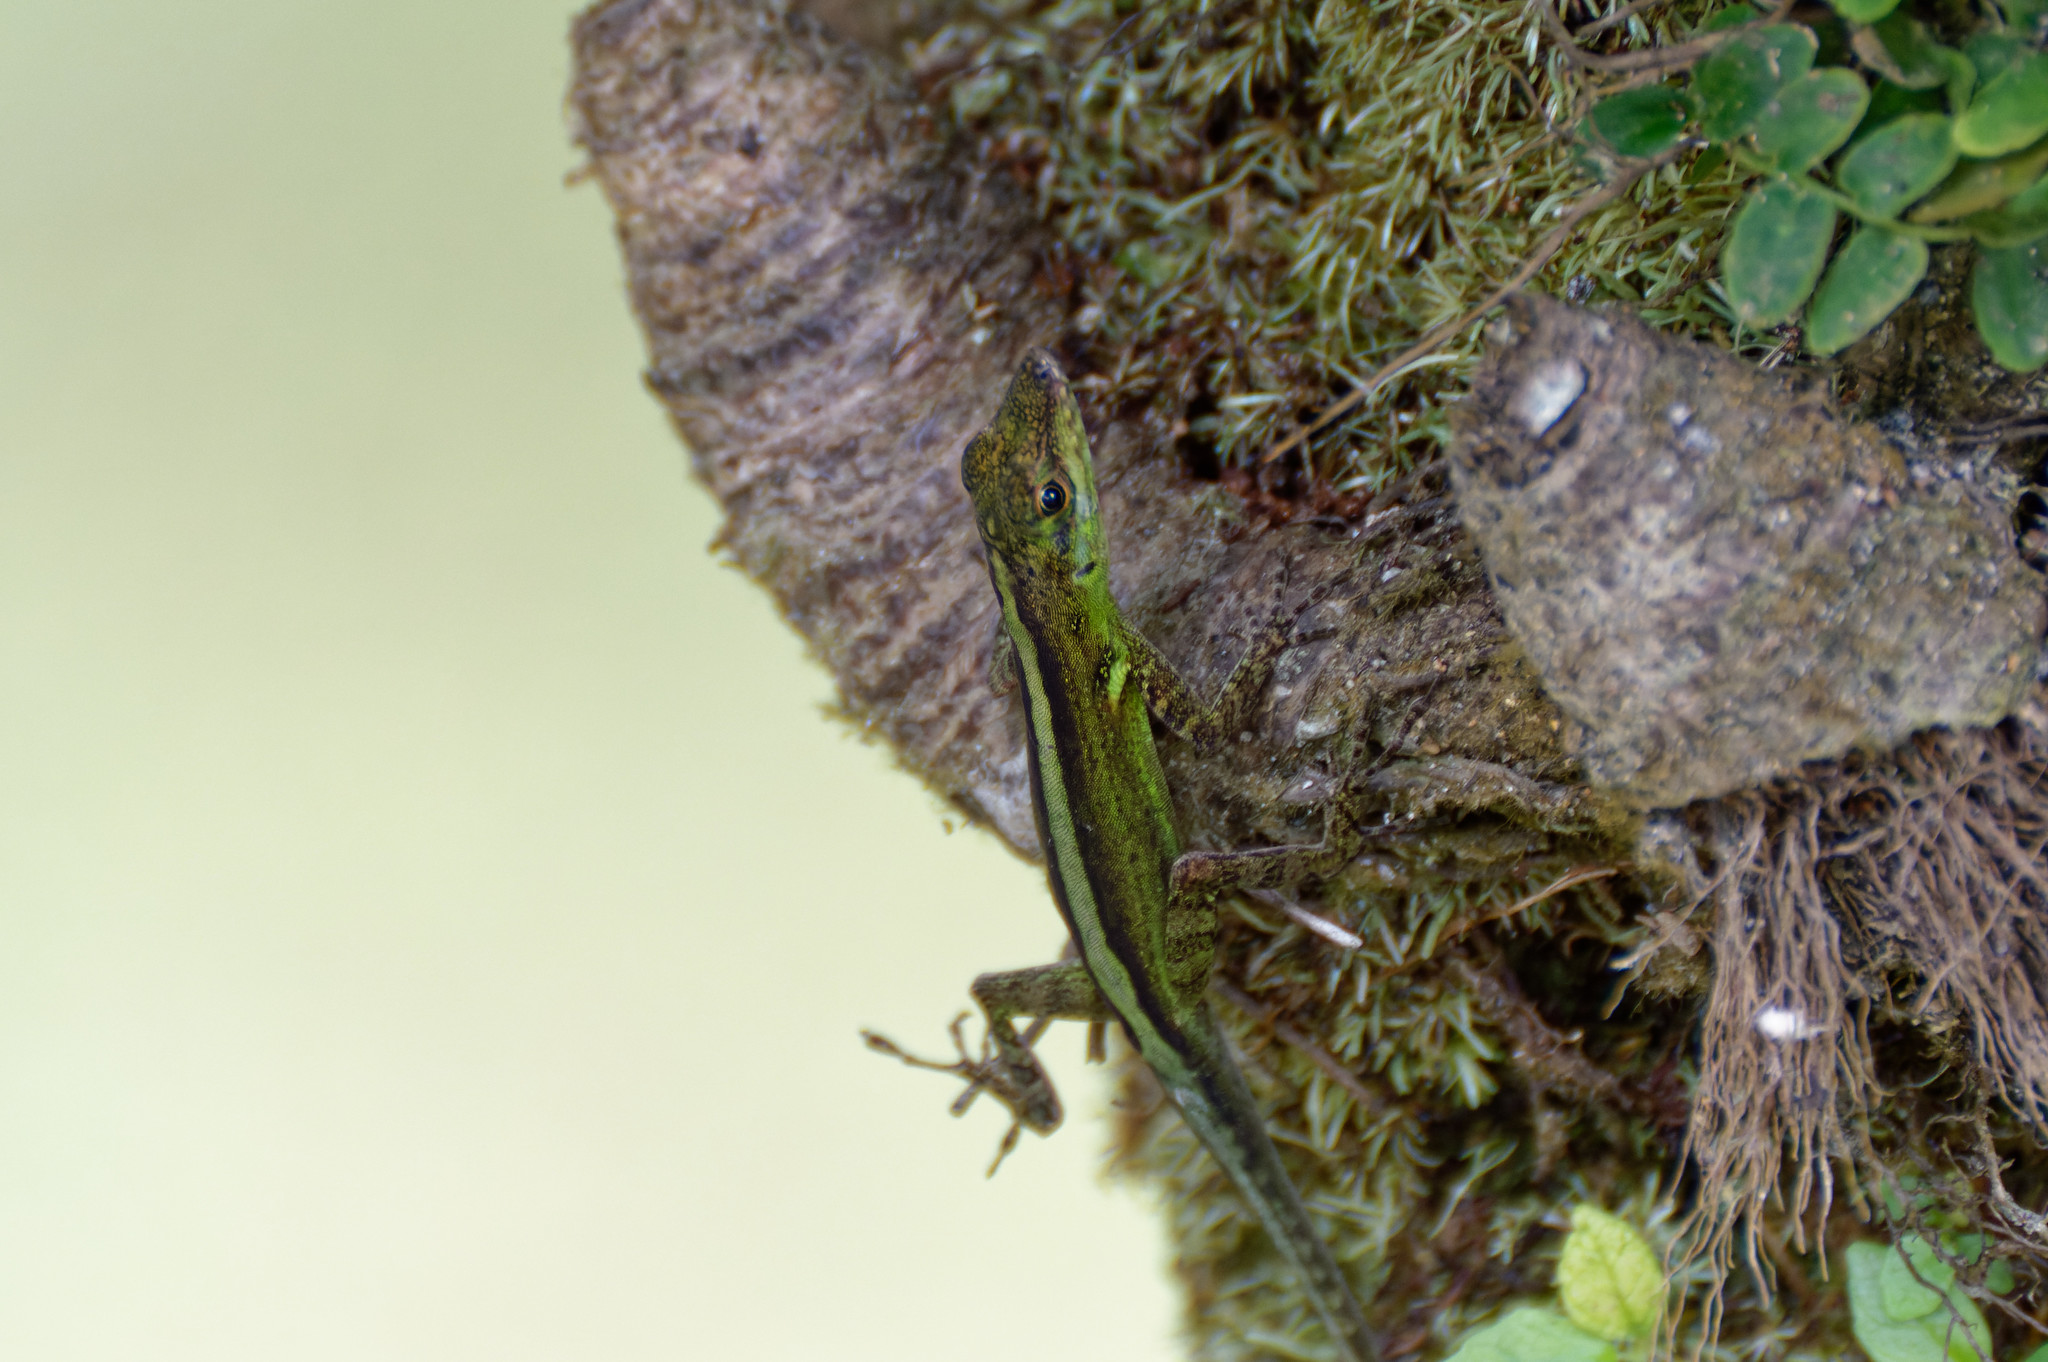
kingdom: Animalia
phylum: Chordata
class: Squamata
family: Dactyloidae
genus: Anolis
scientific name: Anolis roquet
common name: Martinique anole
